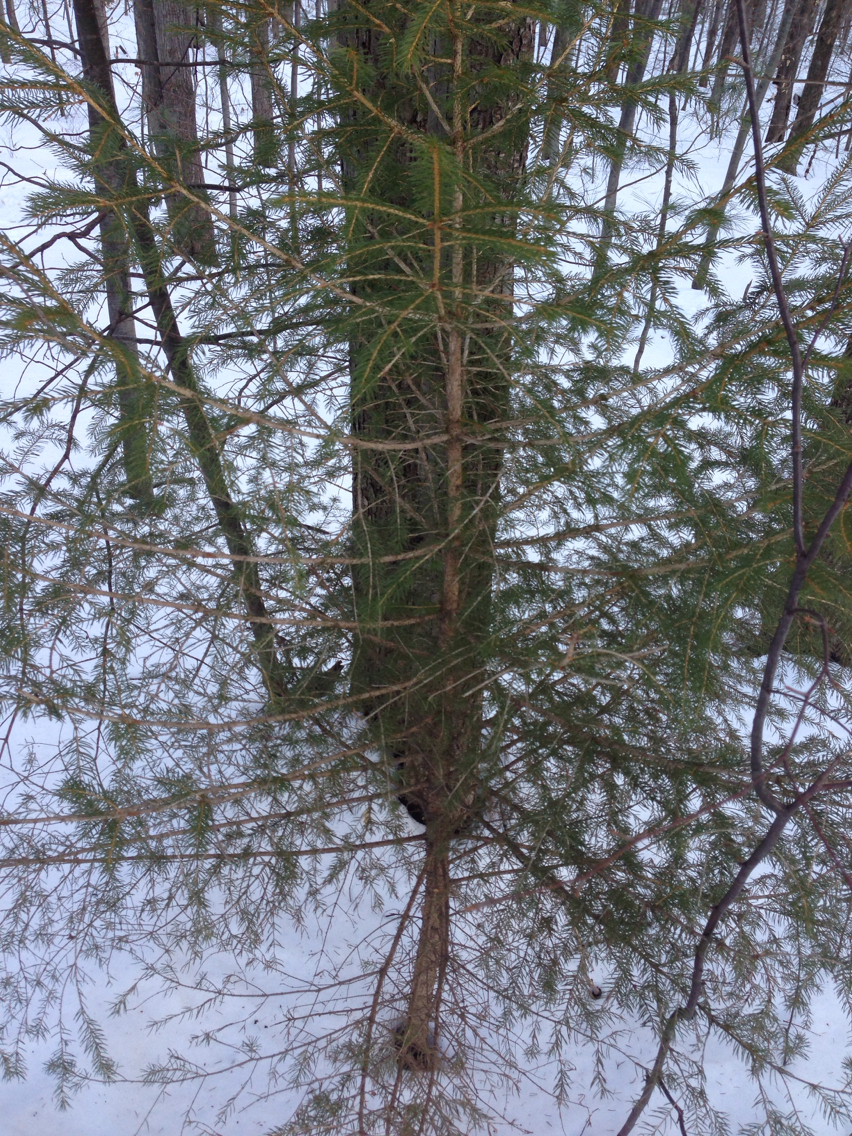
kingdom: Plantae
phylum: Tracheophyta
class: Pinopsida
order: Pinales
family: Pinaceae
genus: Picea
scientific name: Picea rubens
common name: Red spruce
